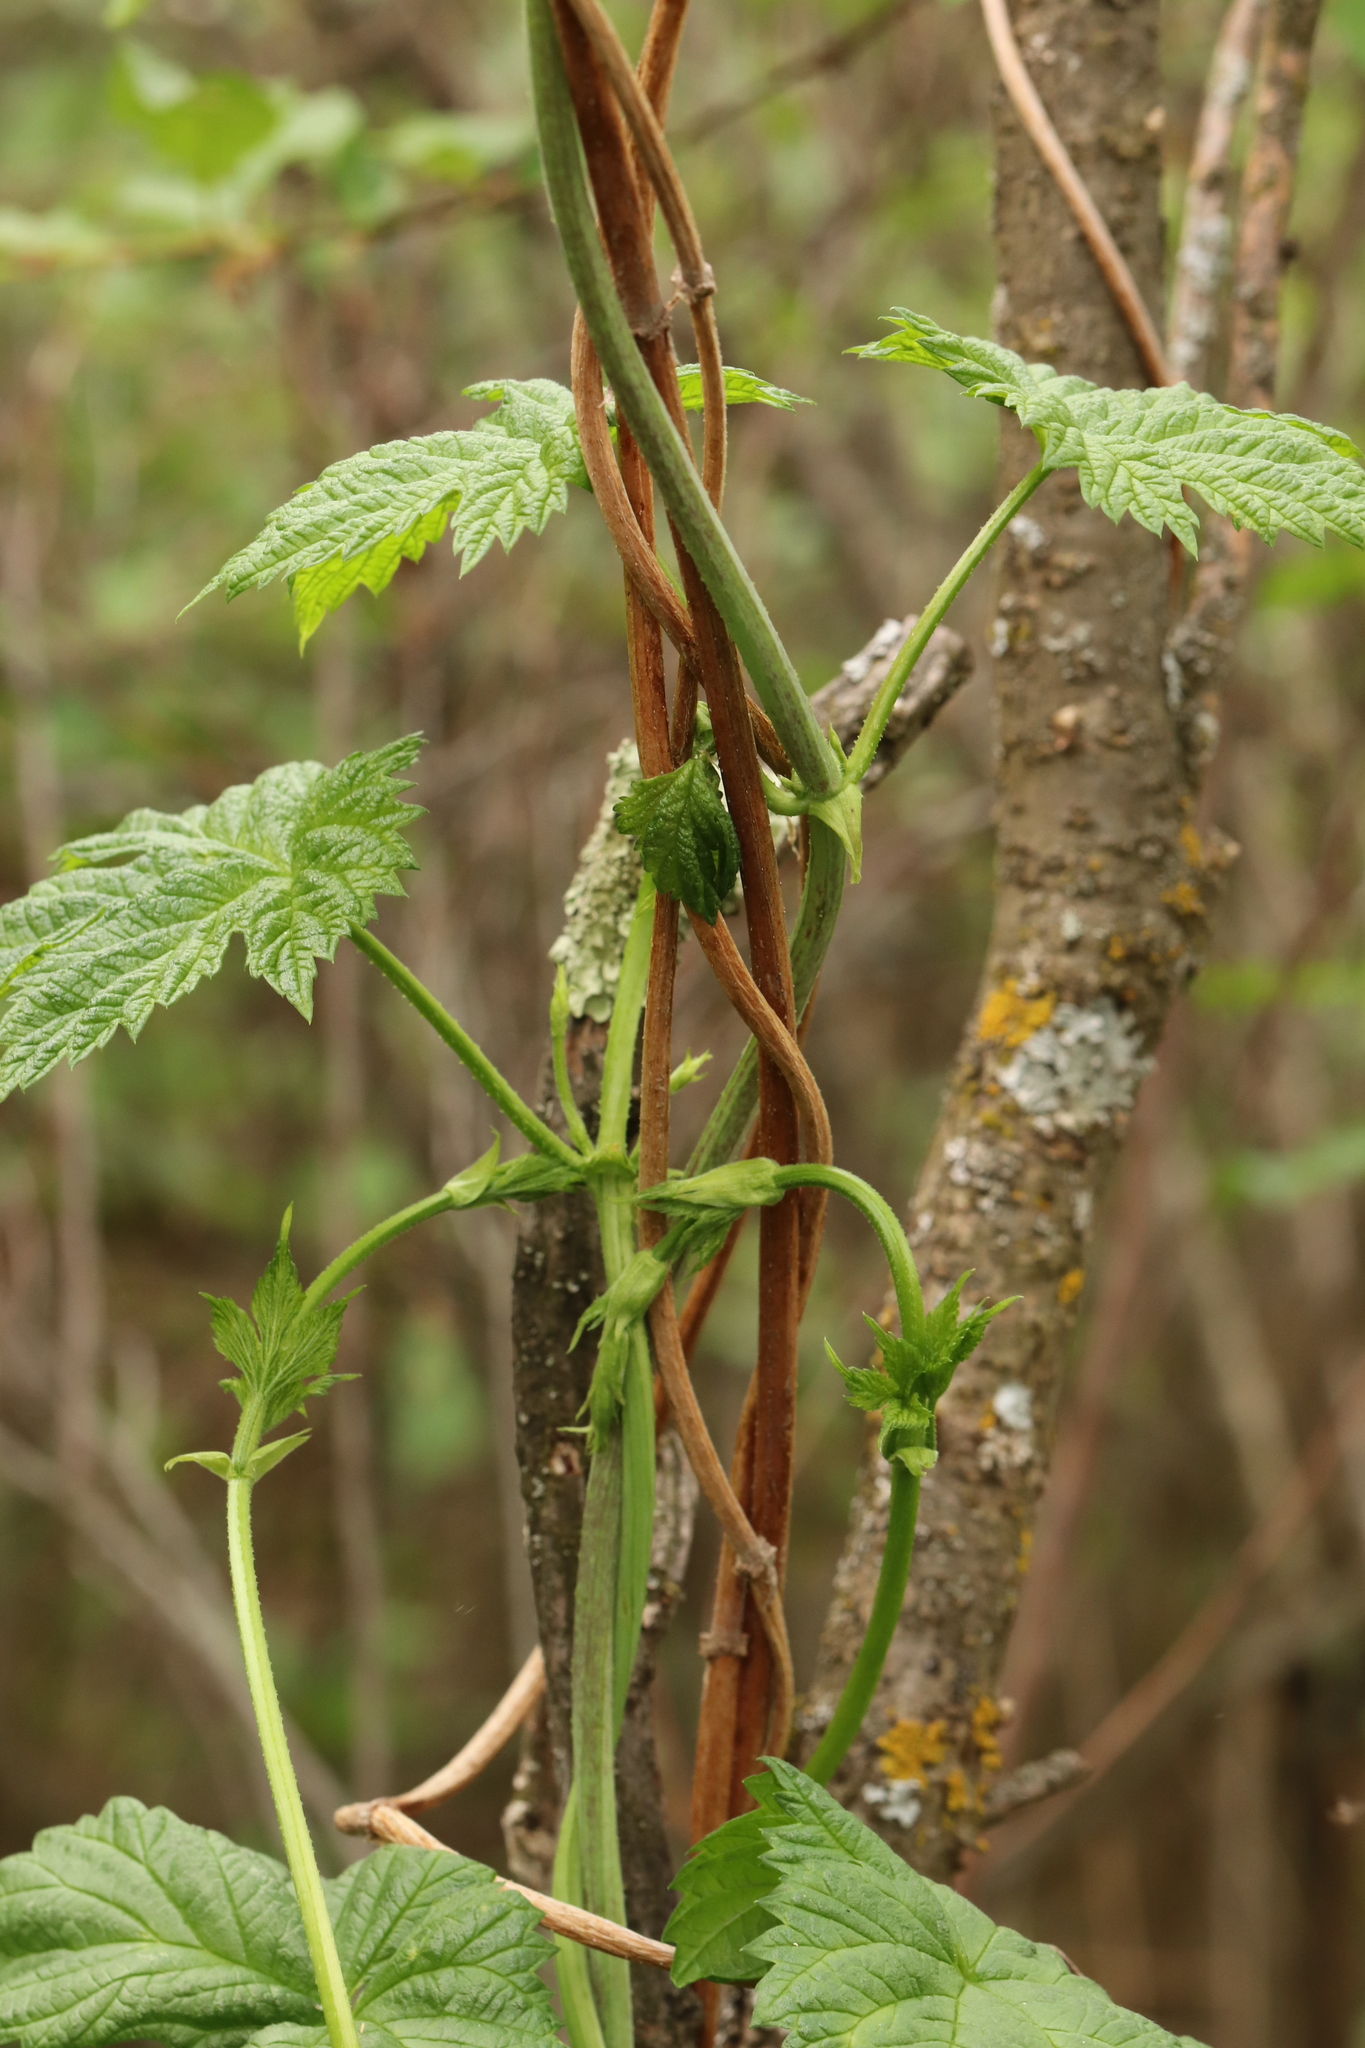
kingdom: Plantae
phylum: Tracheophyta
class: Magnoliopsida
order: Rosales
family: Cannabaceae
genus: Humulus
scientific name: Humulus lupulus
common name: Hop
